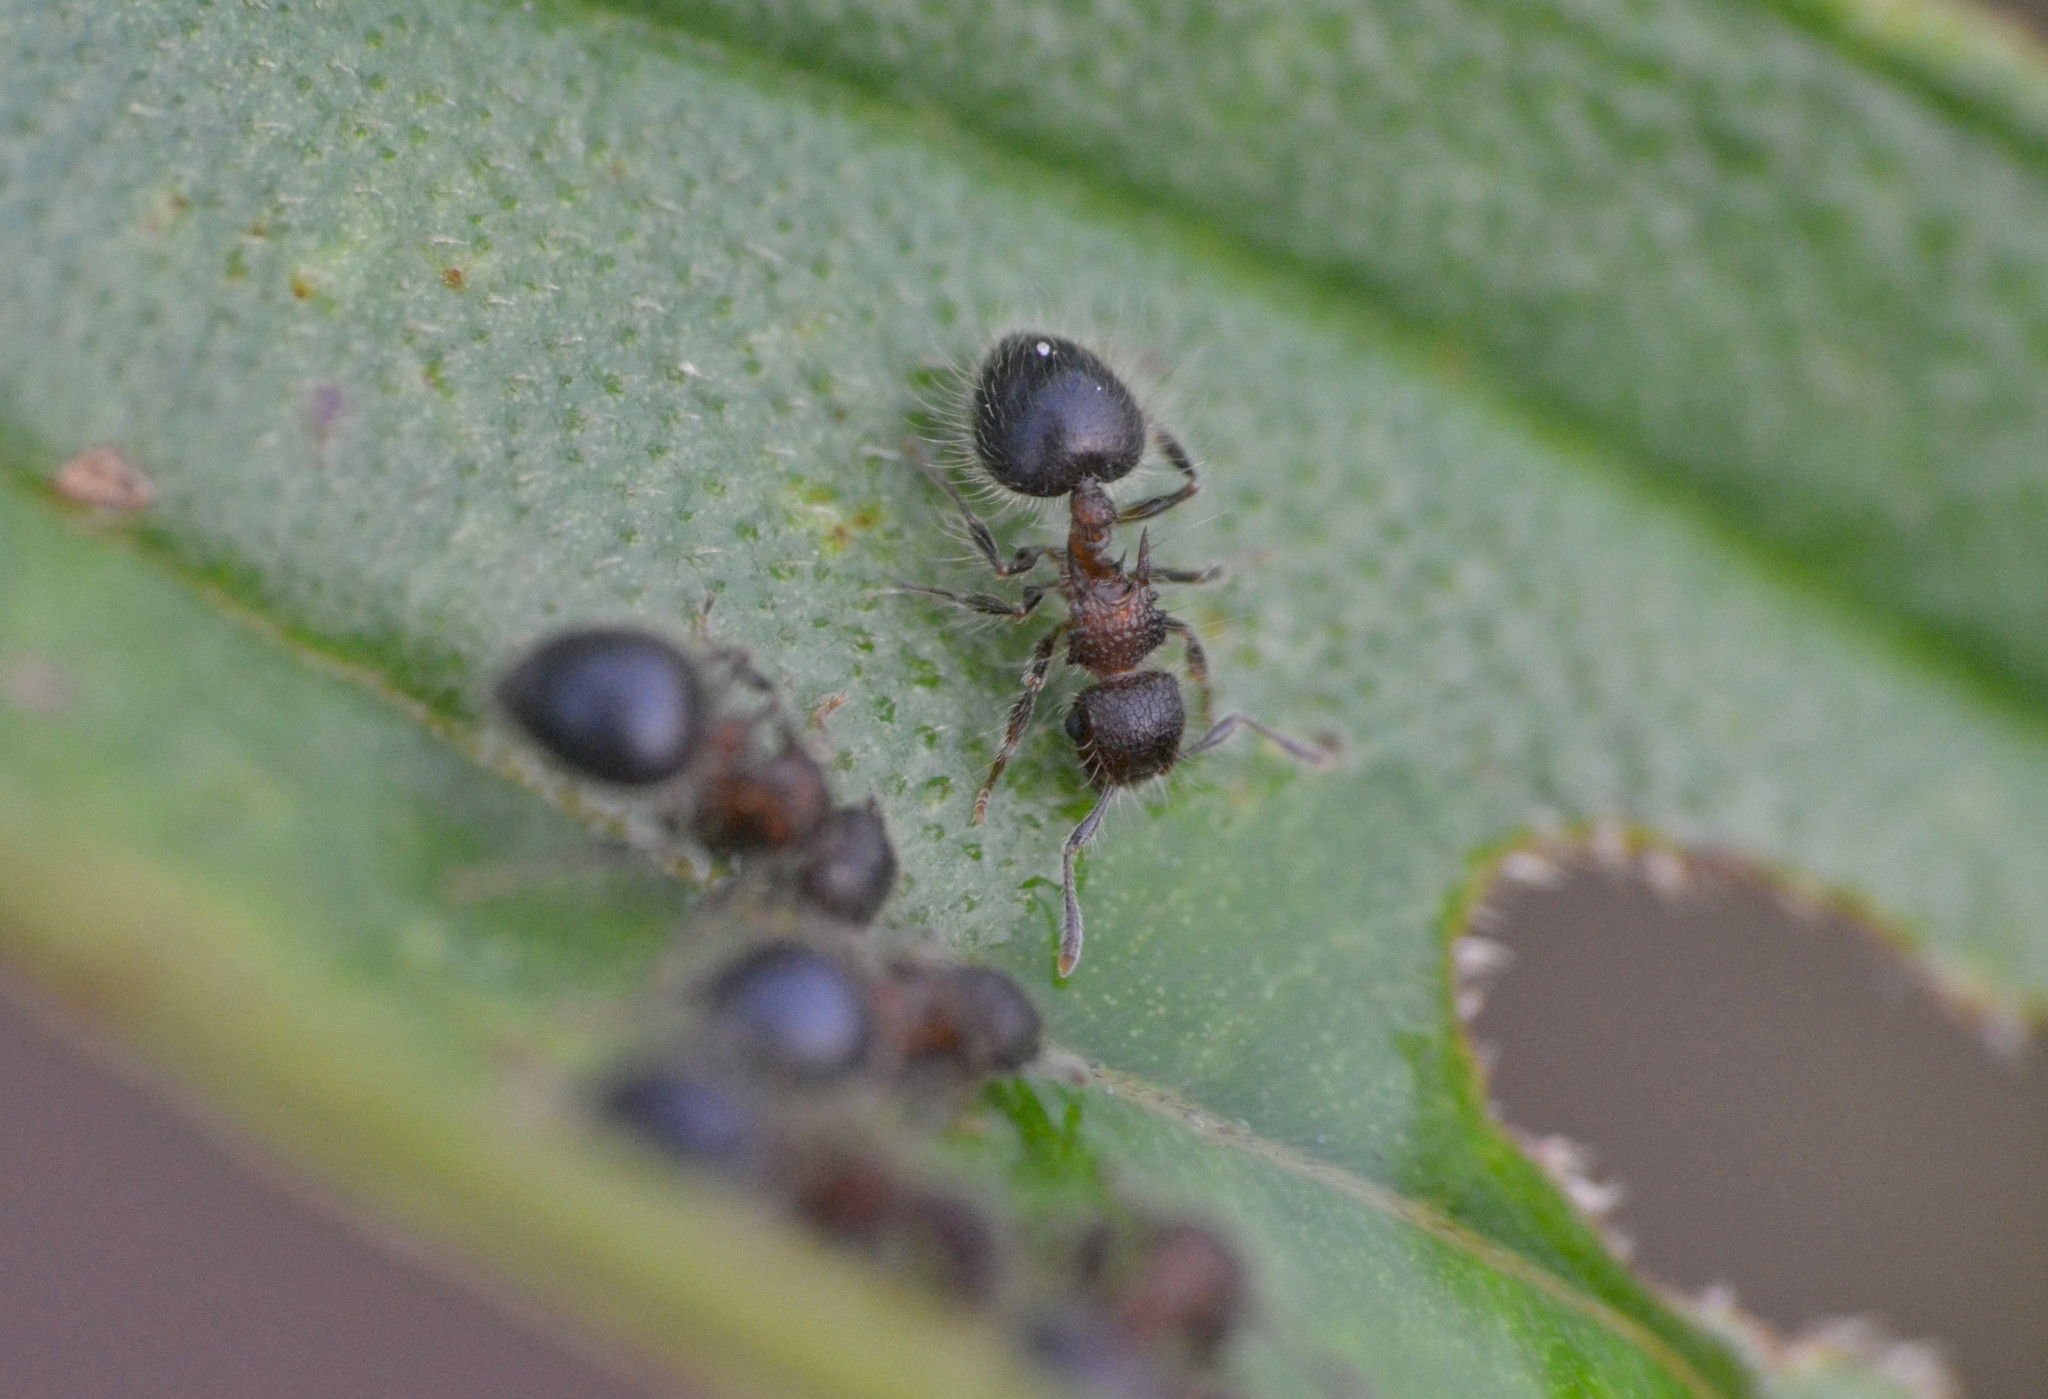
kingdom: Animalia
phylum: Arthropoda
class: Insecta
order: Hymenoptera
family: Formicidae
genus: Meranoplus
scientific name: Meranoplus bicolor
